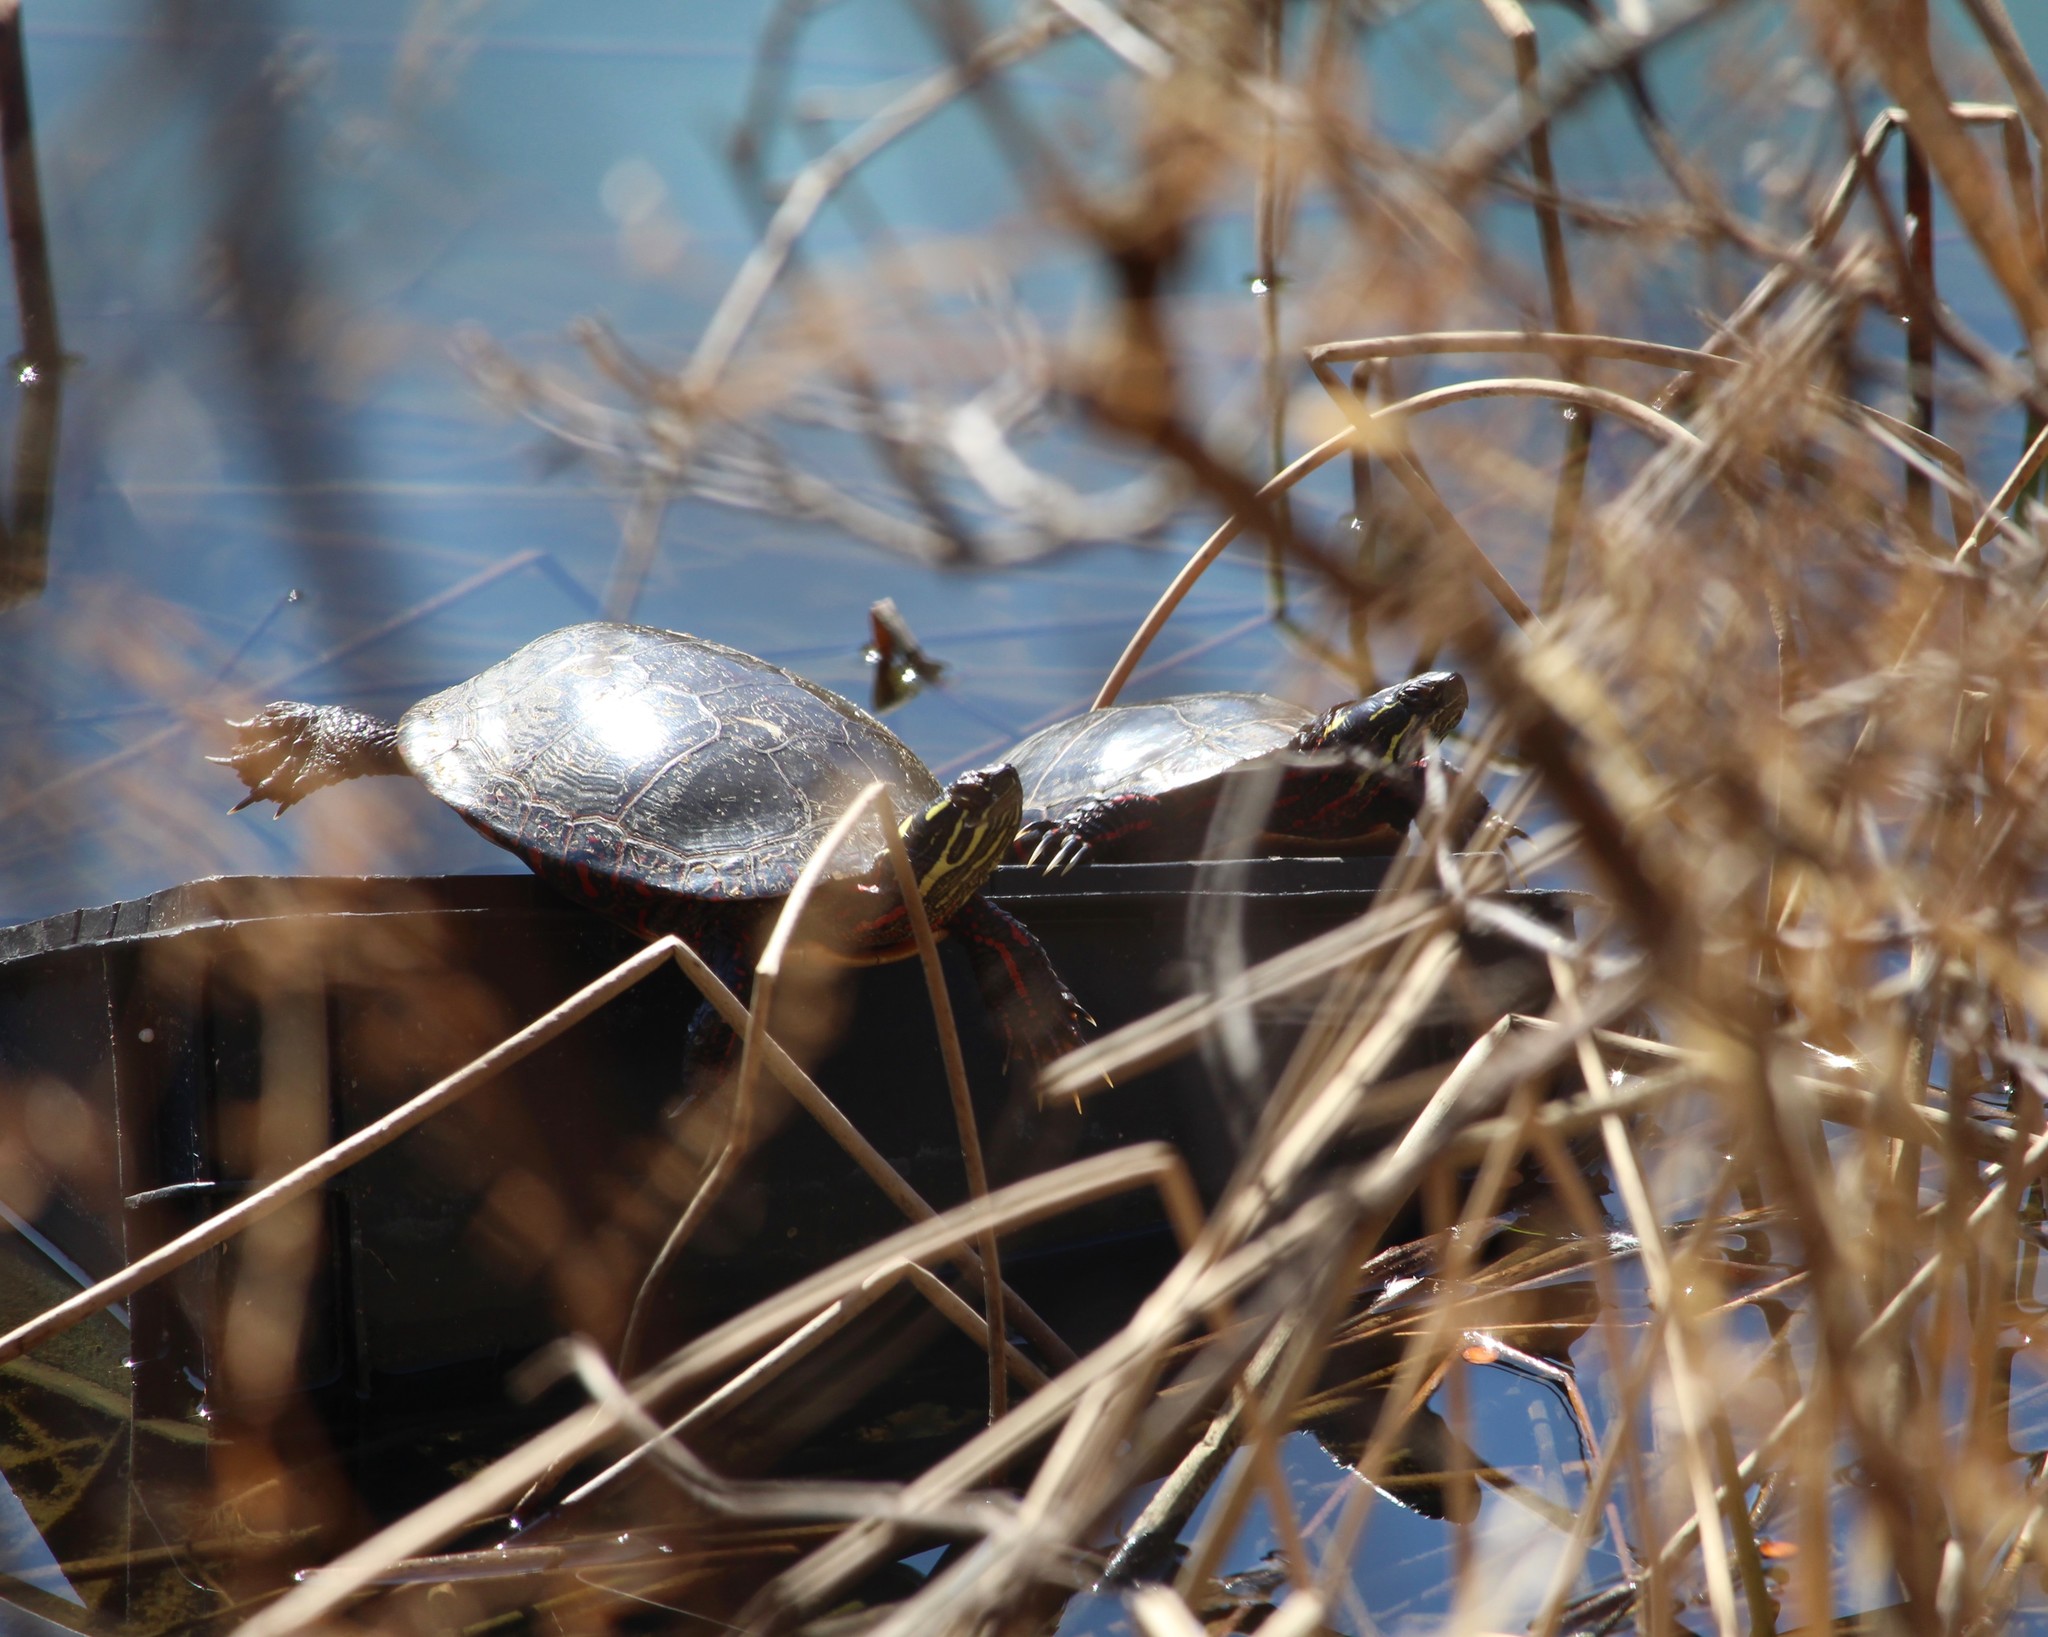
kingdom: Animalia
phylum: Chordata
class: Testudines
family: Emydidae
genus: Chrysemys
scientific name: Chrysemys picta
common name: Painted turtle
